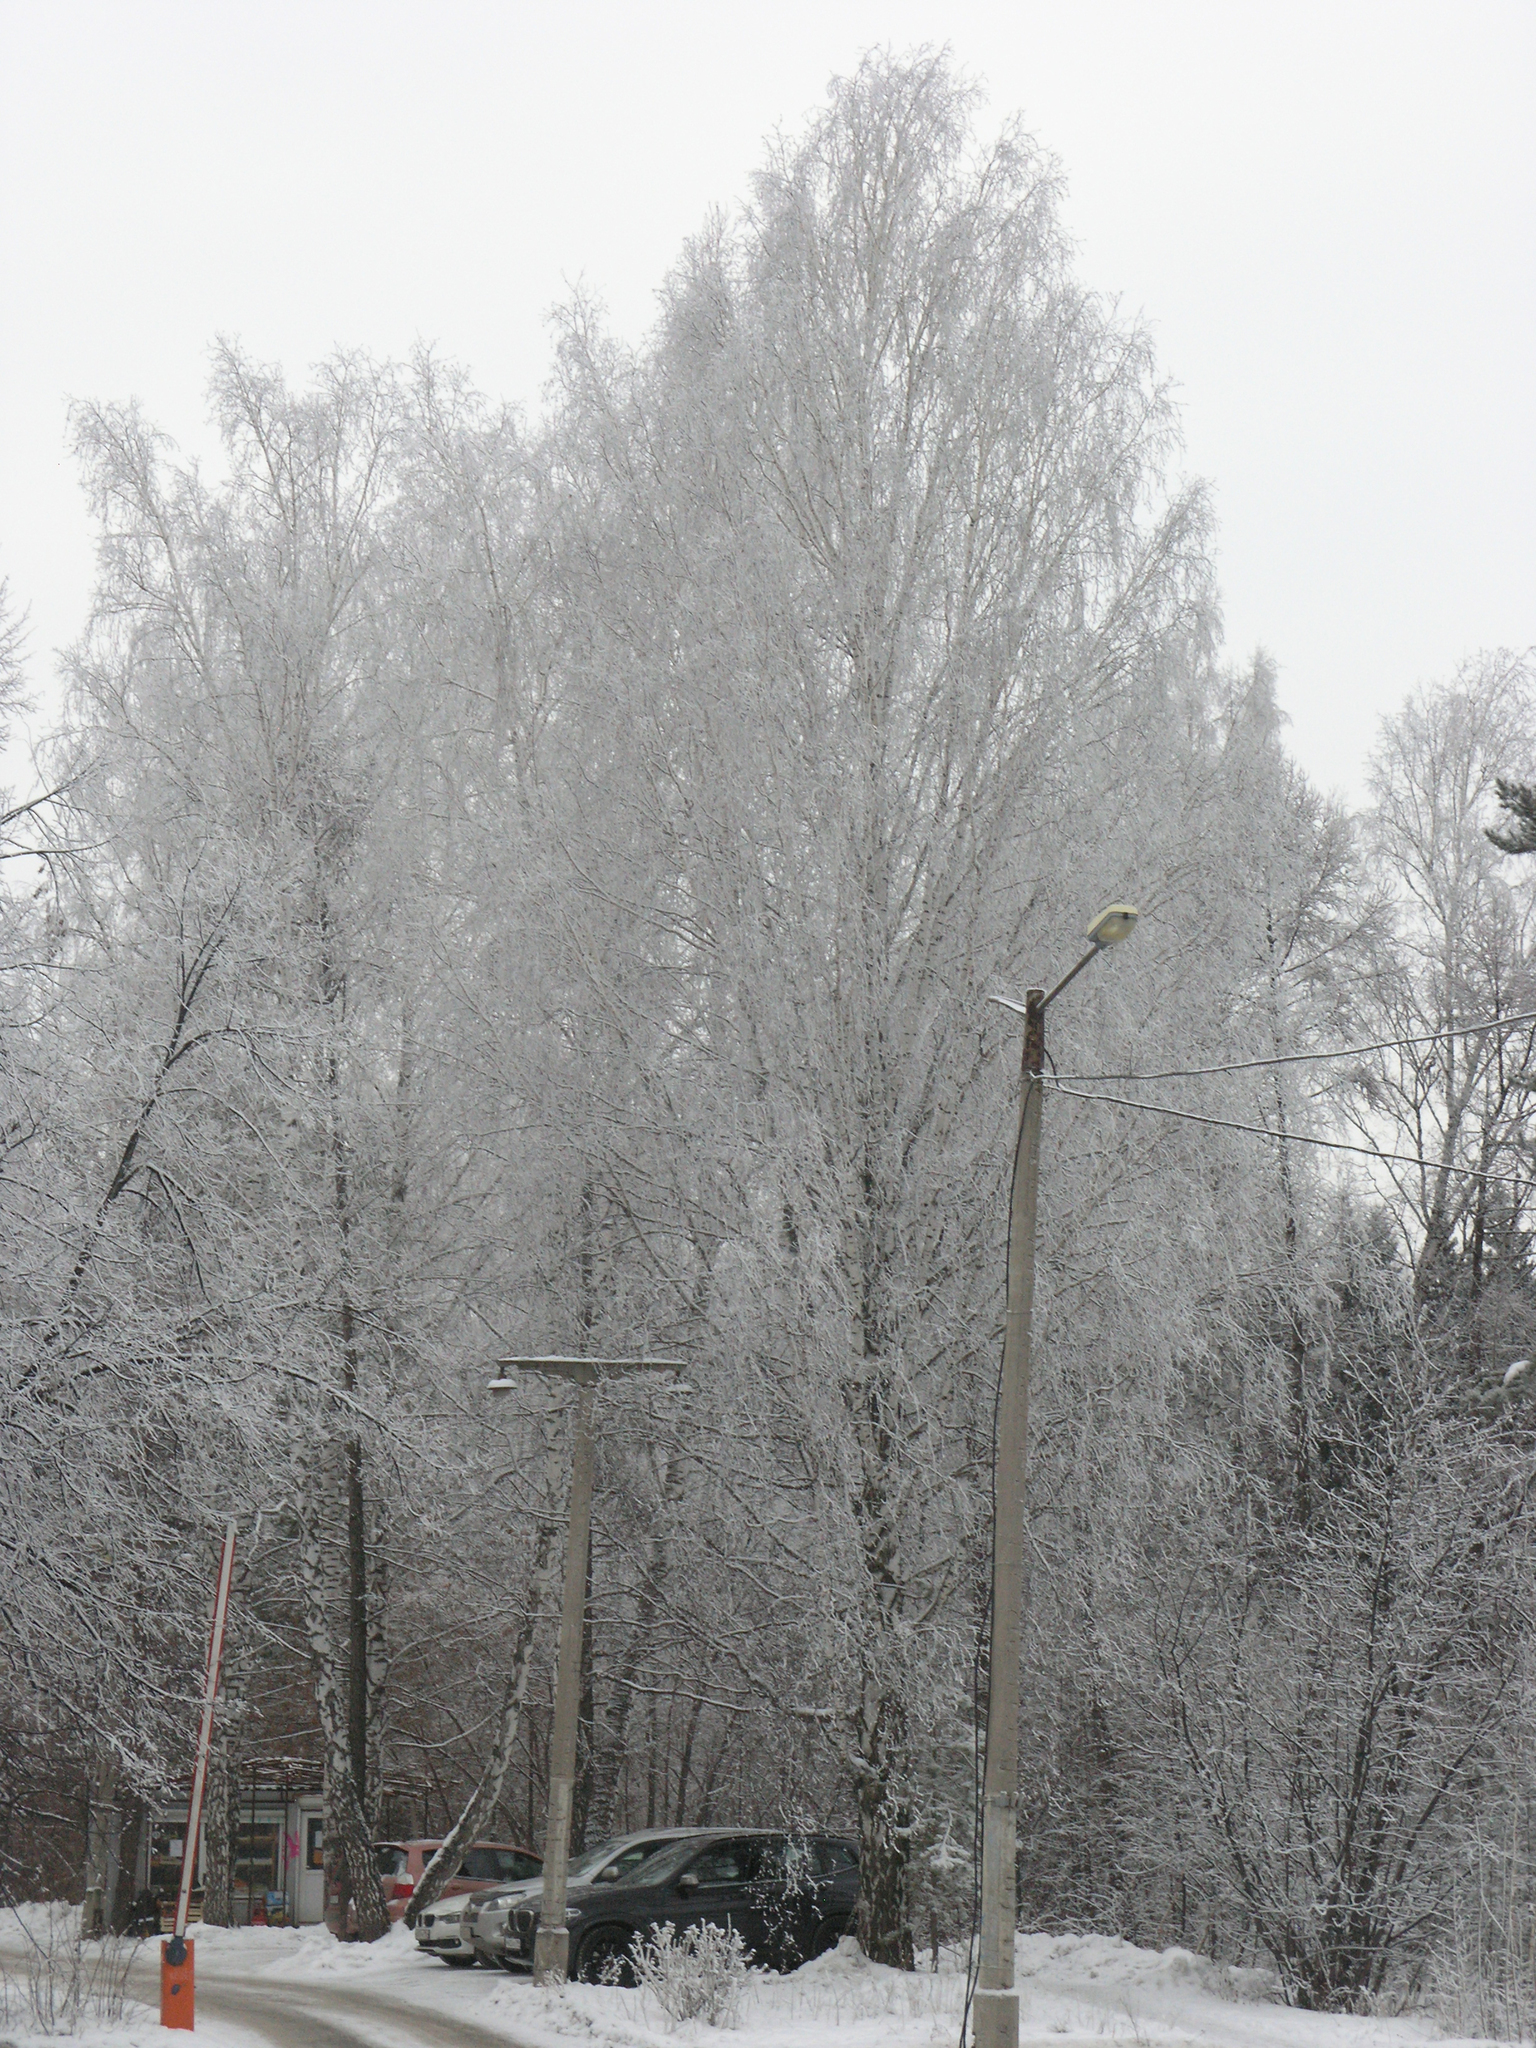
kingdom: Plantae
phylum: Tracheophyta
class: Magnoliopsida
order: Fagales
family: Betulaceae
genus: Betula
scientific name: Betula pendula
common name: Silver birch
